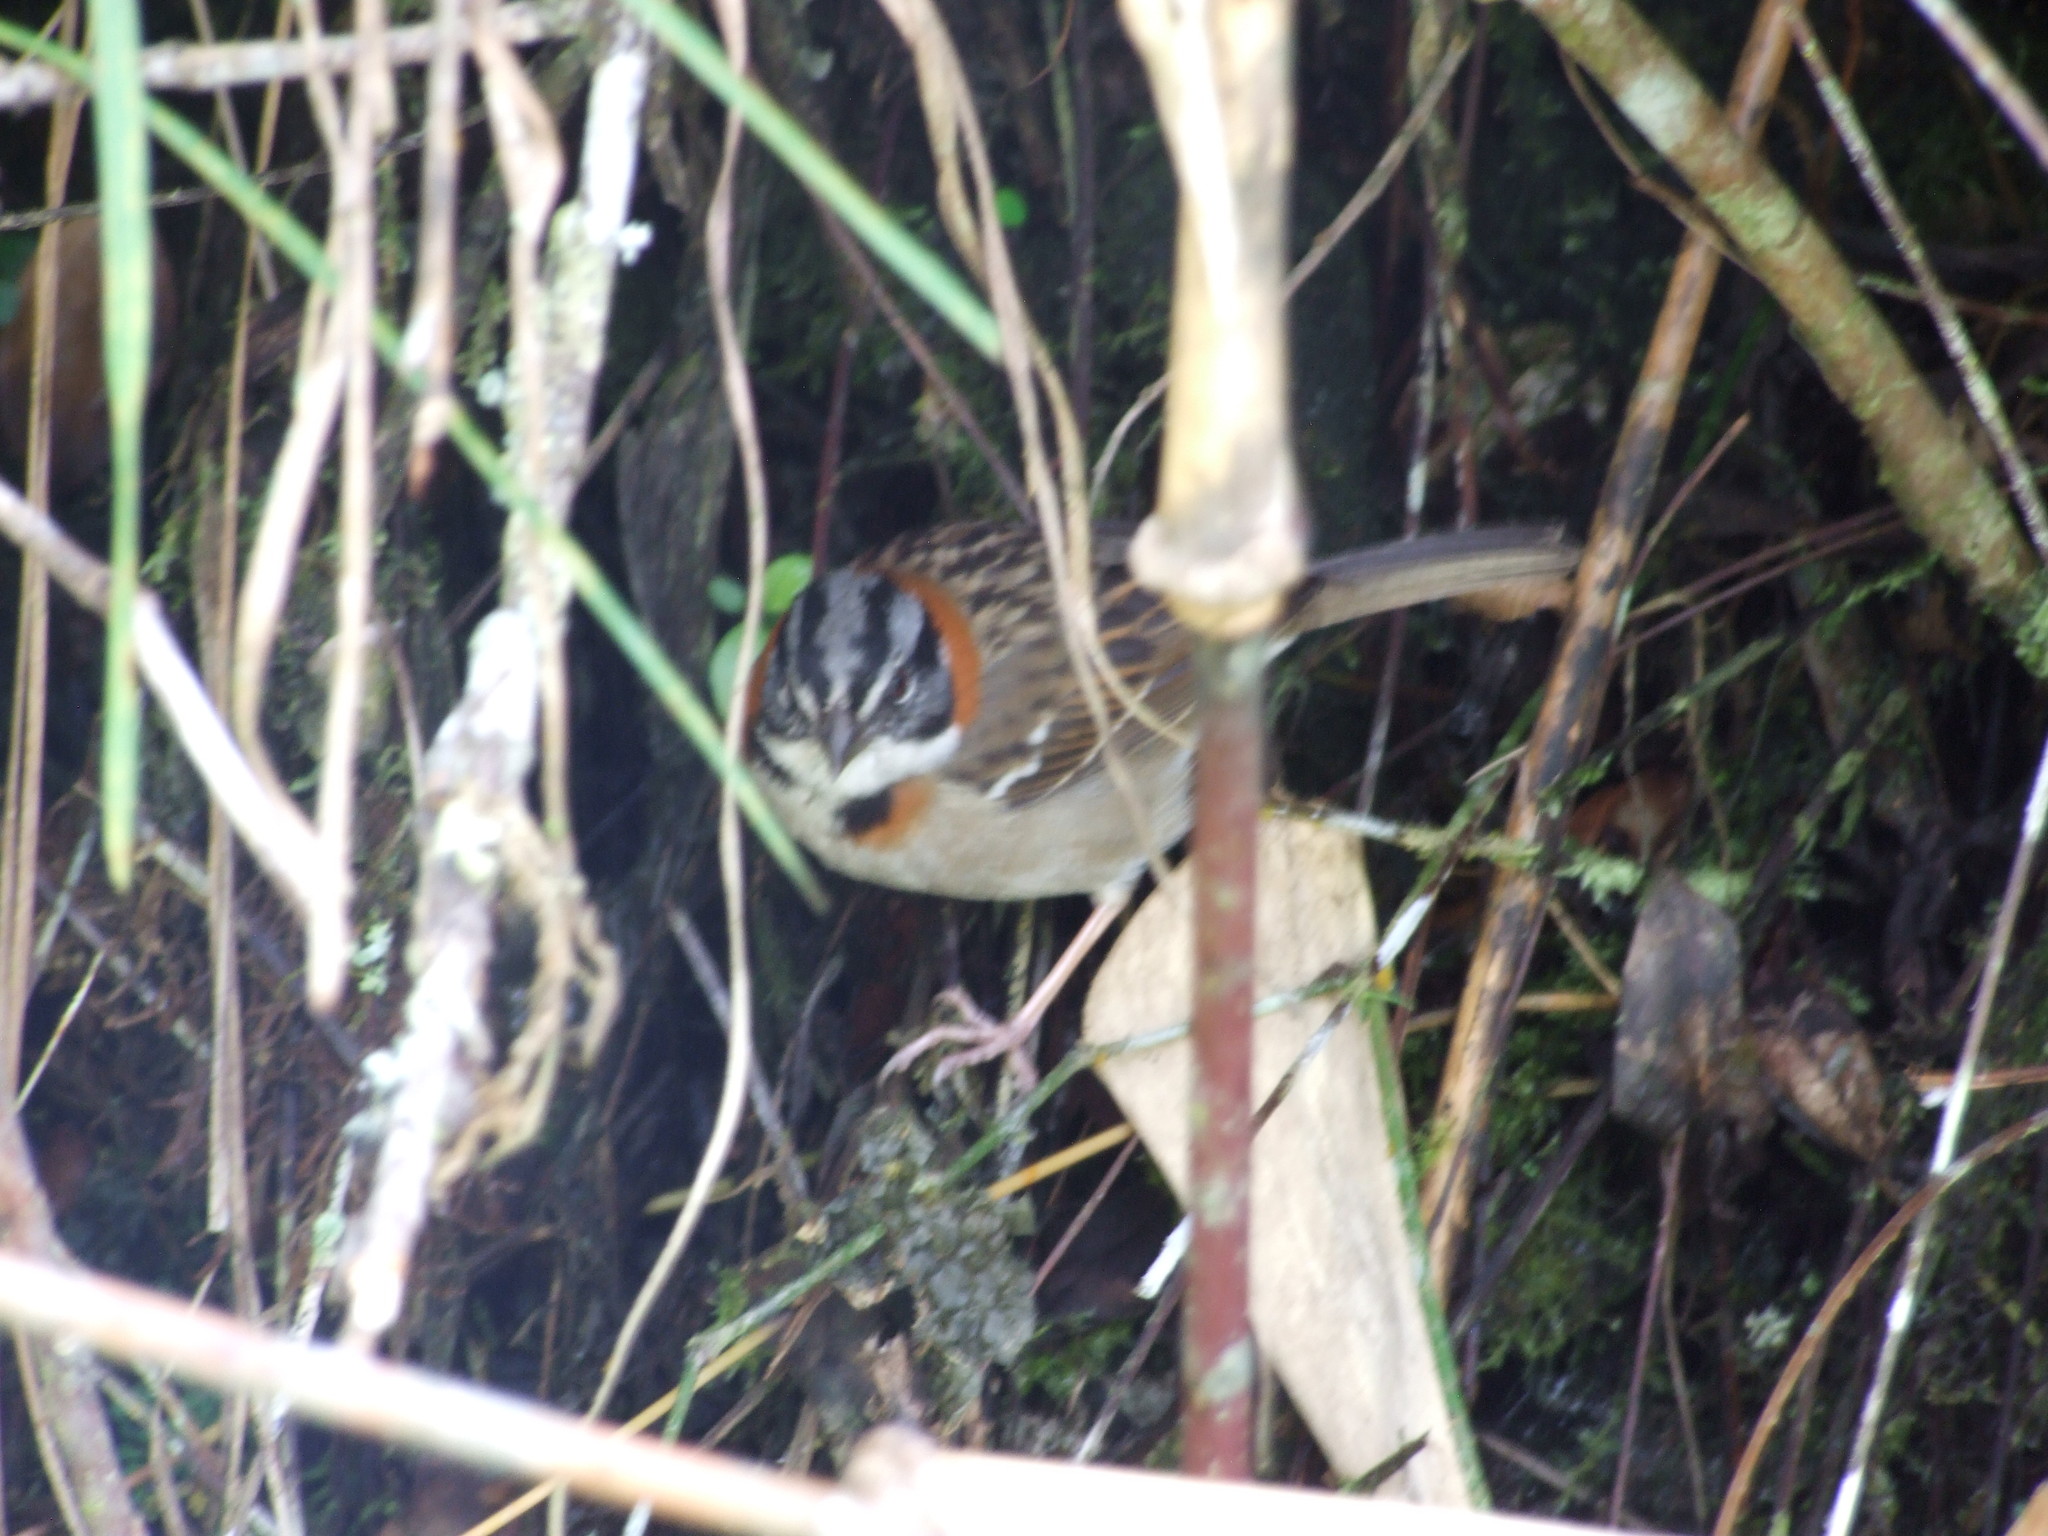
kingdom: Animalia
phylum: Chordata
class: Aves
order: Passeriformes
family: Passerellidae
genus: Zonotrichia
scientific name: Zonotrichia capensis
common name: Rufous-collared sparrow
